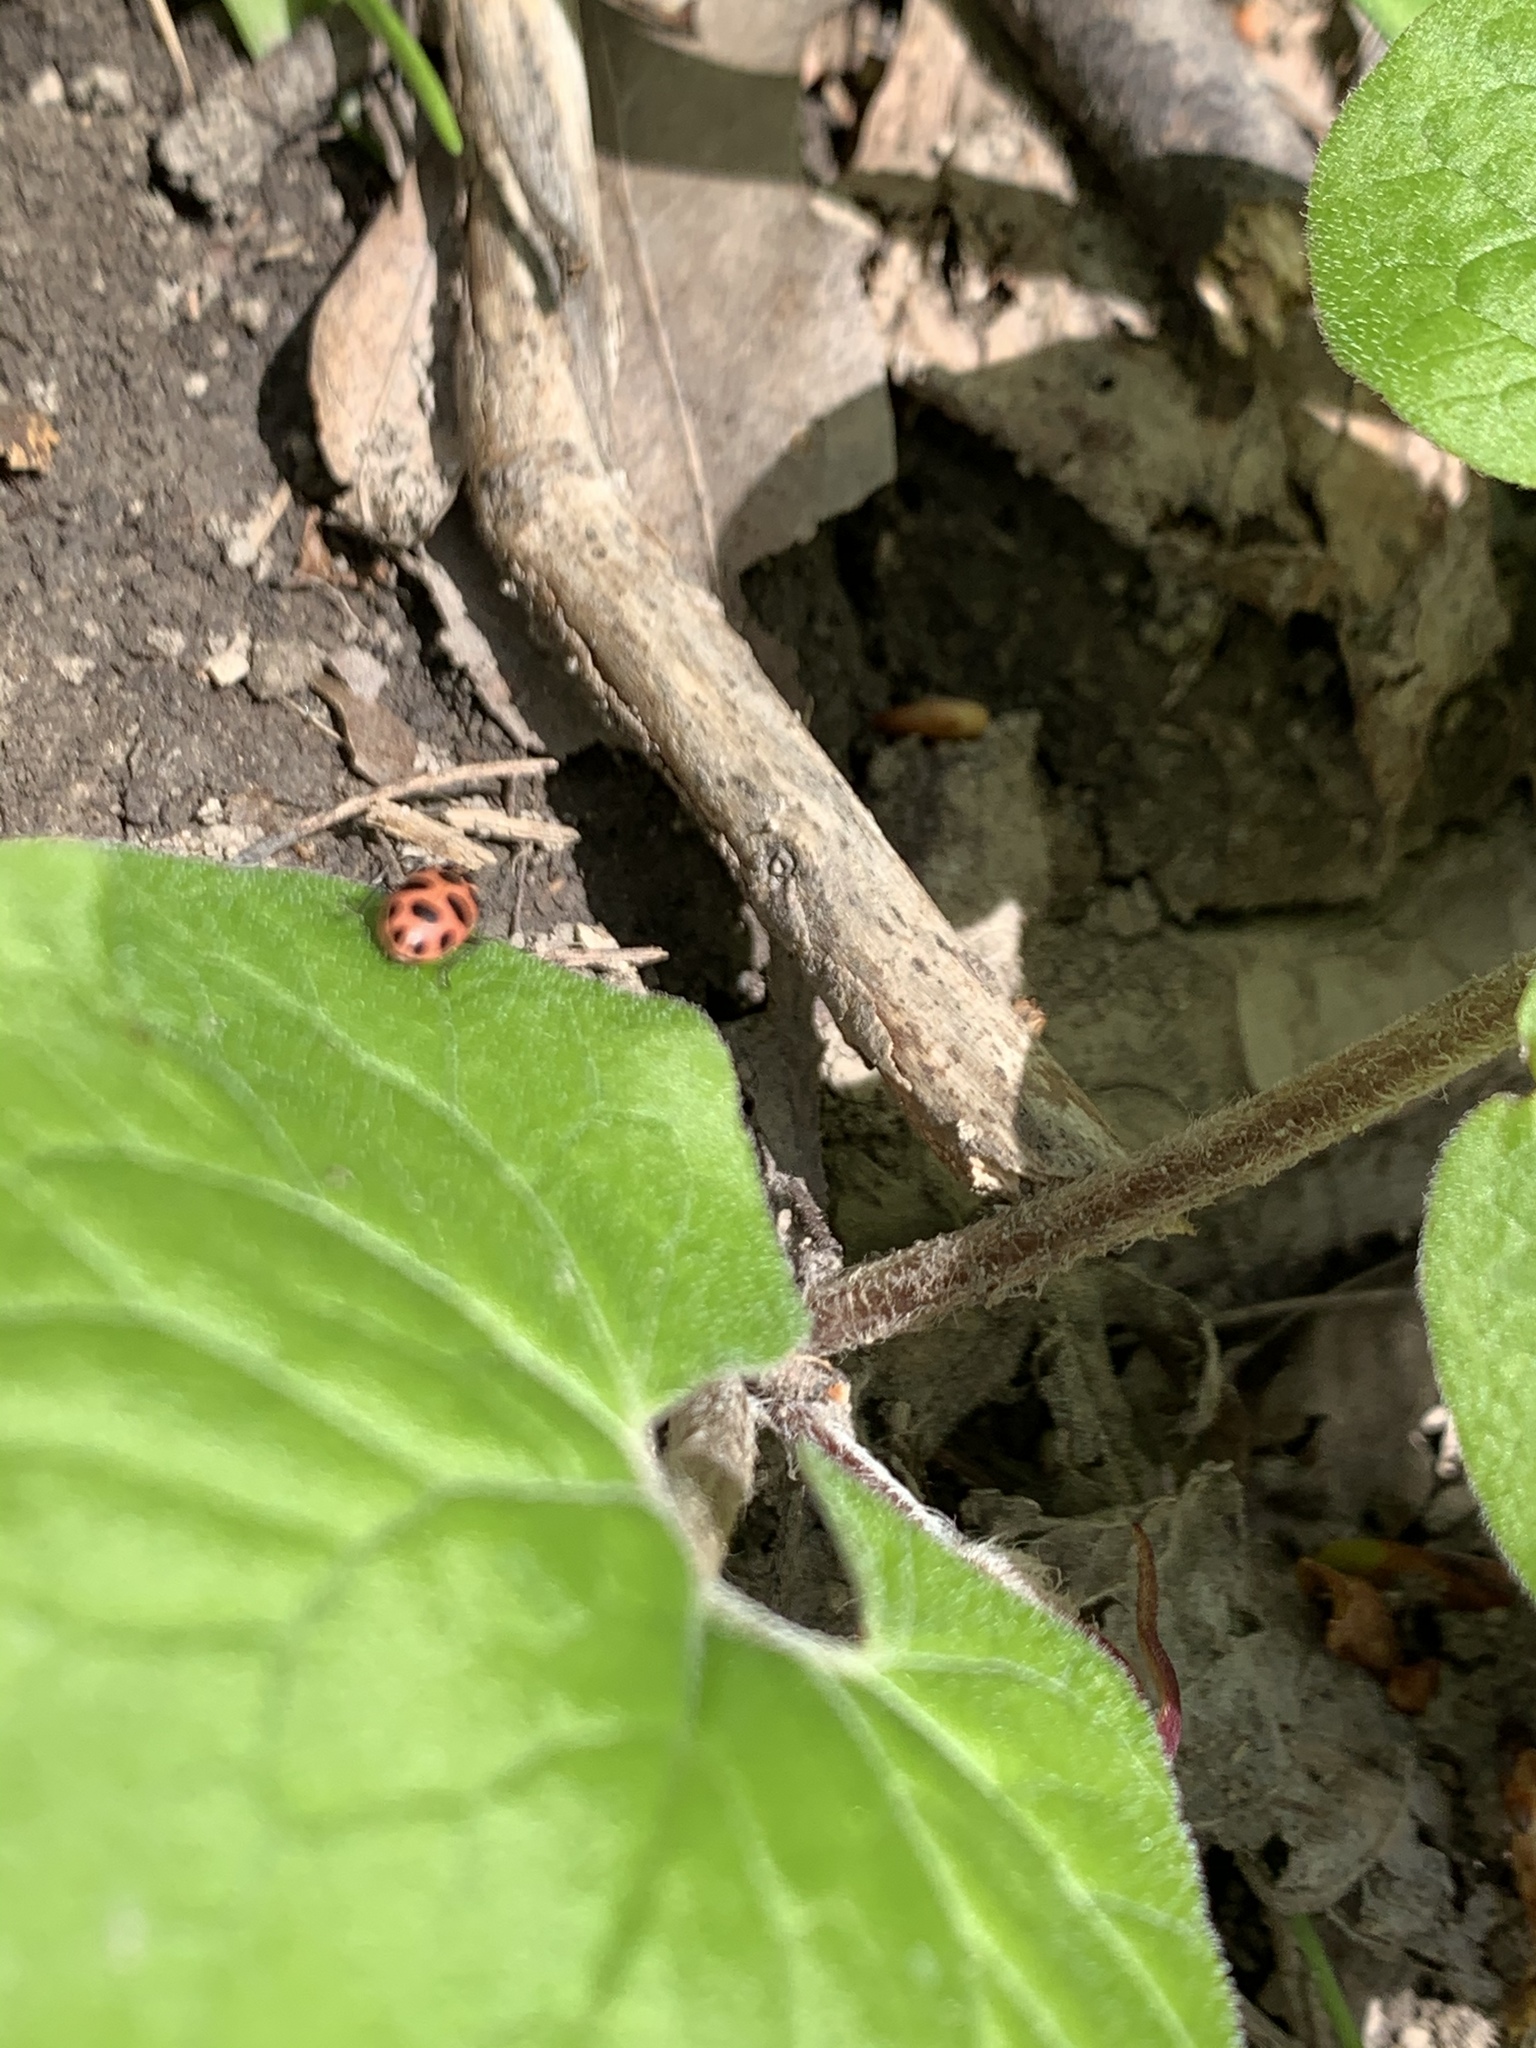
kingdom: Animalia
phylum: Arthropoda
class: Insecta
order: Coleoptera
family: Coccinellidae
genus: Coleomegilla
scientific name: Coleomegilla maculata
